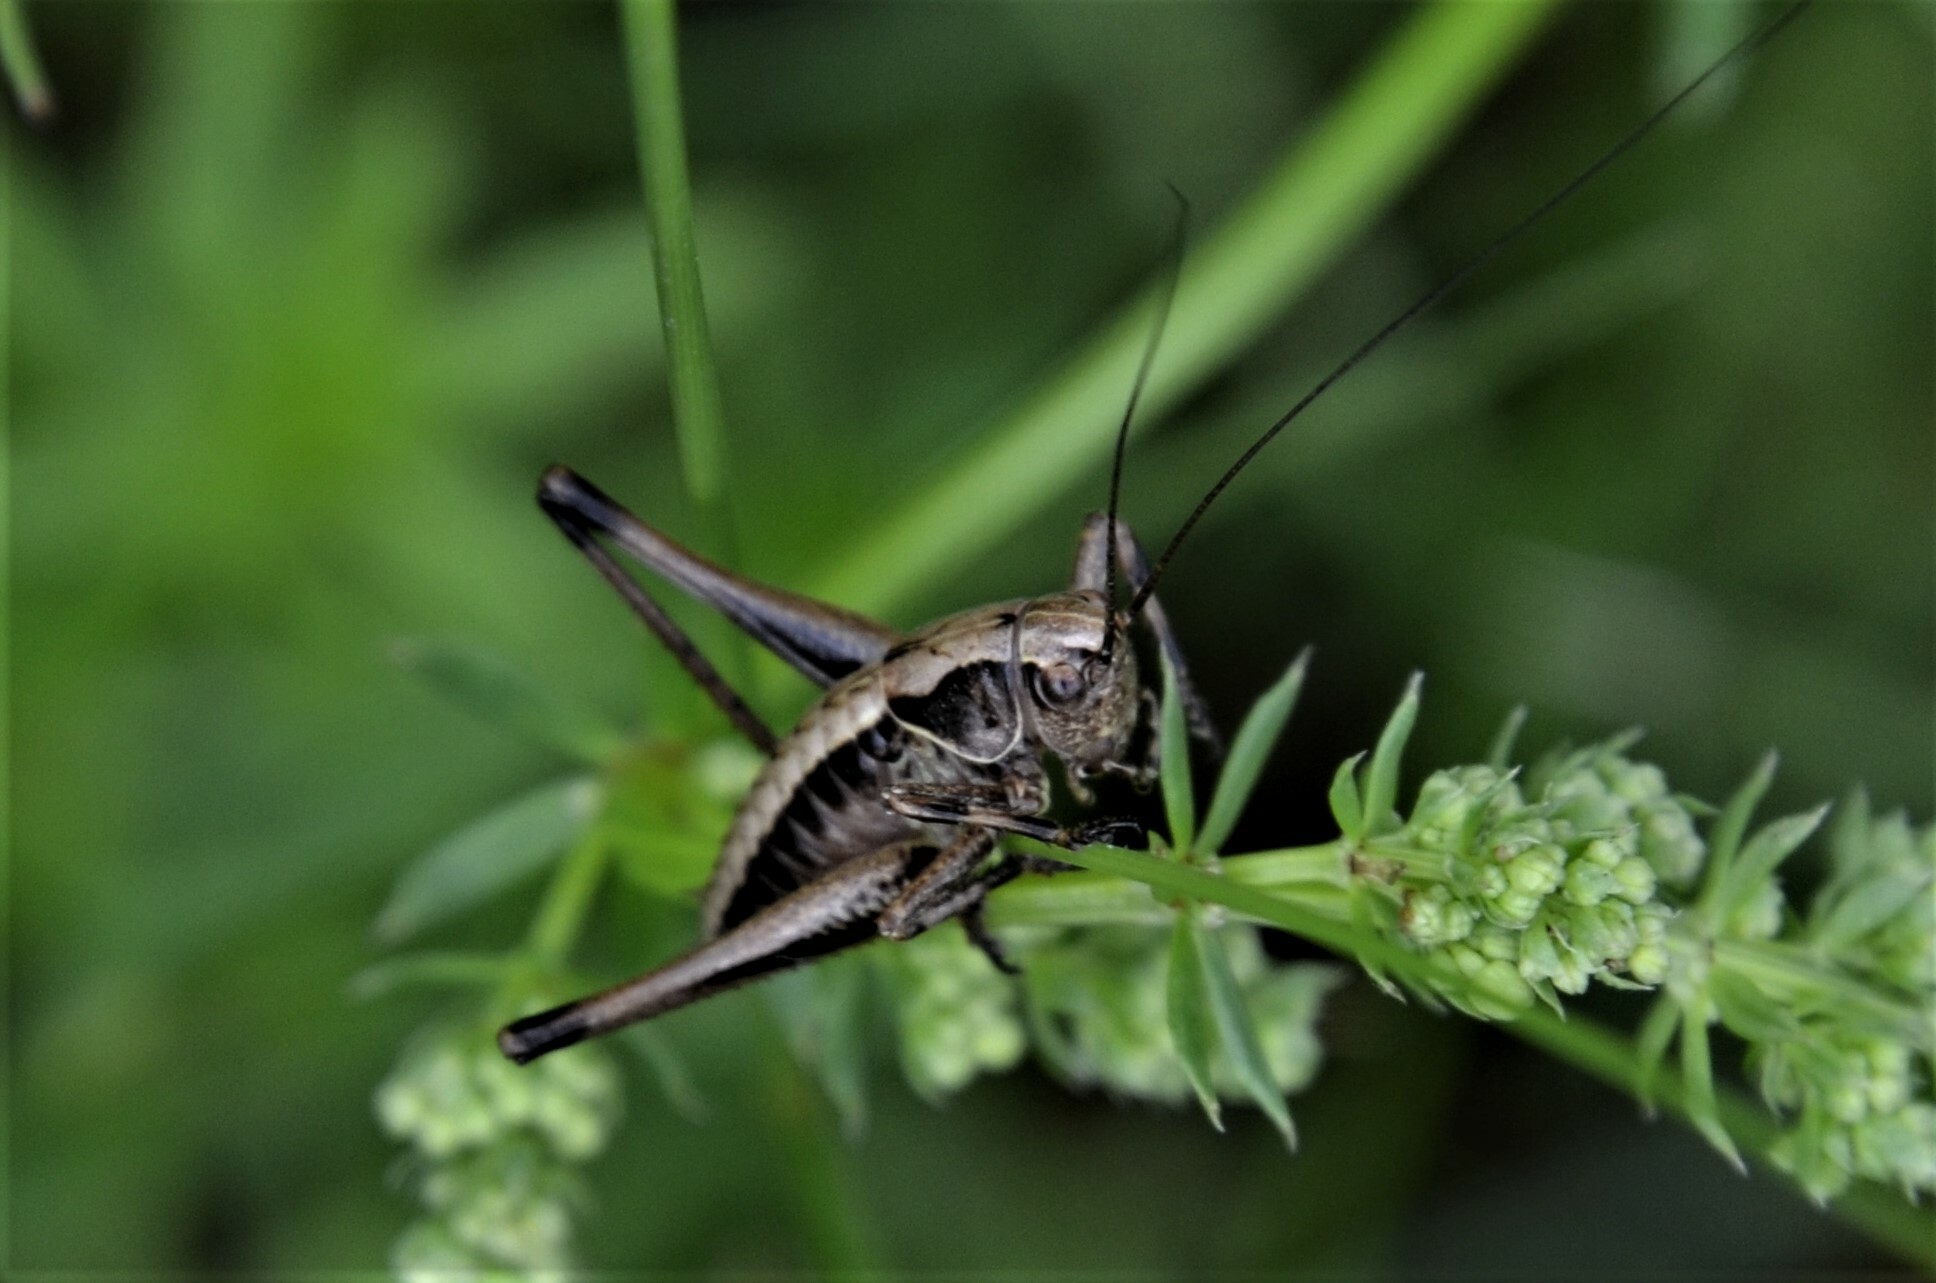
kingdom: Animalia
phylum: Arthropoda
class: Insecta
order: Orthoptera
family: Tettigoniidae
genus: Pholidoptera
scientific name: Pholidoptera griseoaptera
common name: Dark bush-cricket
